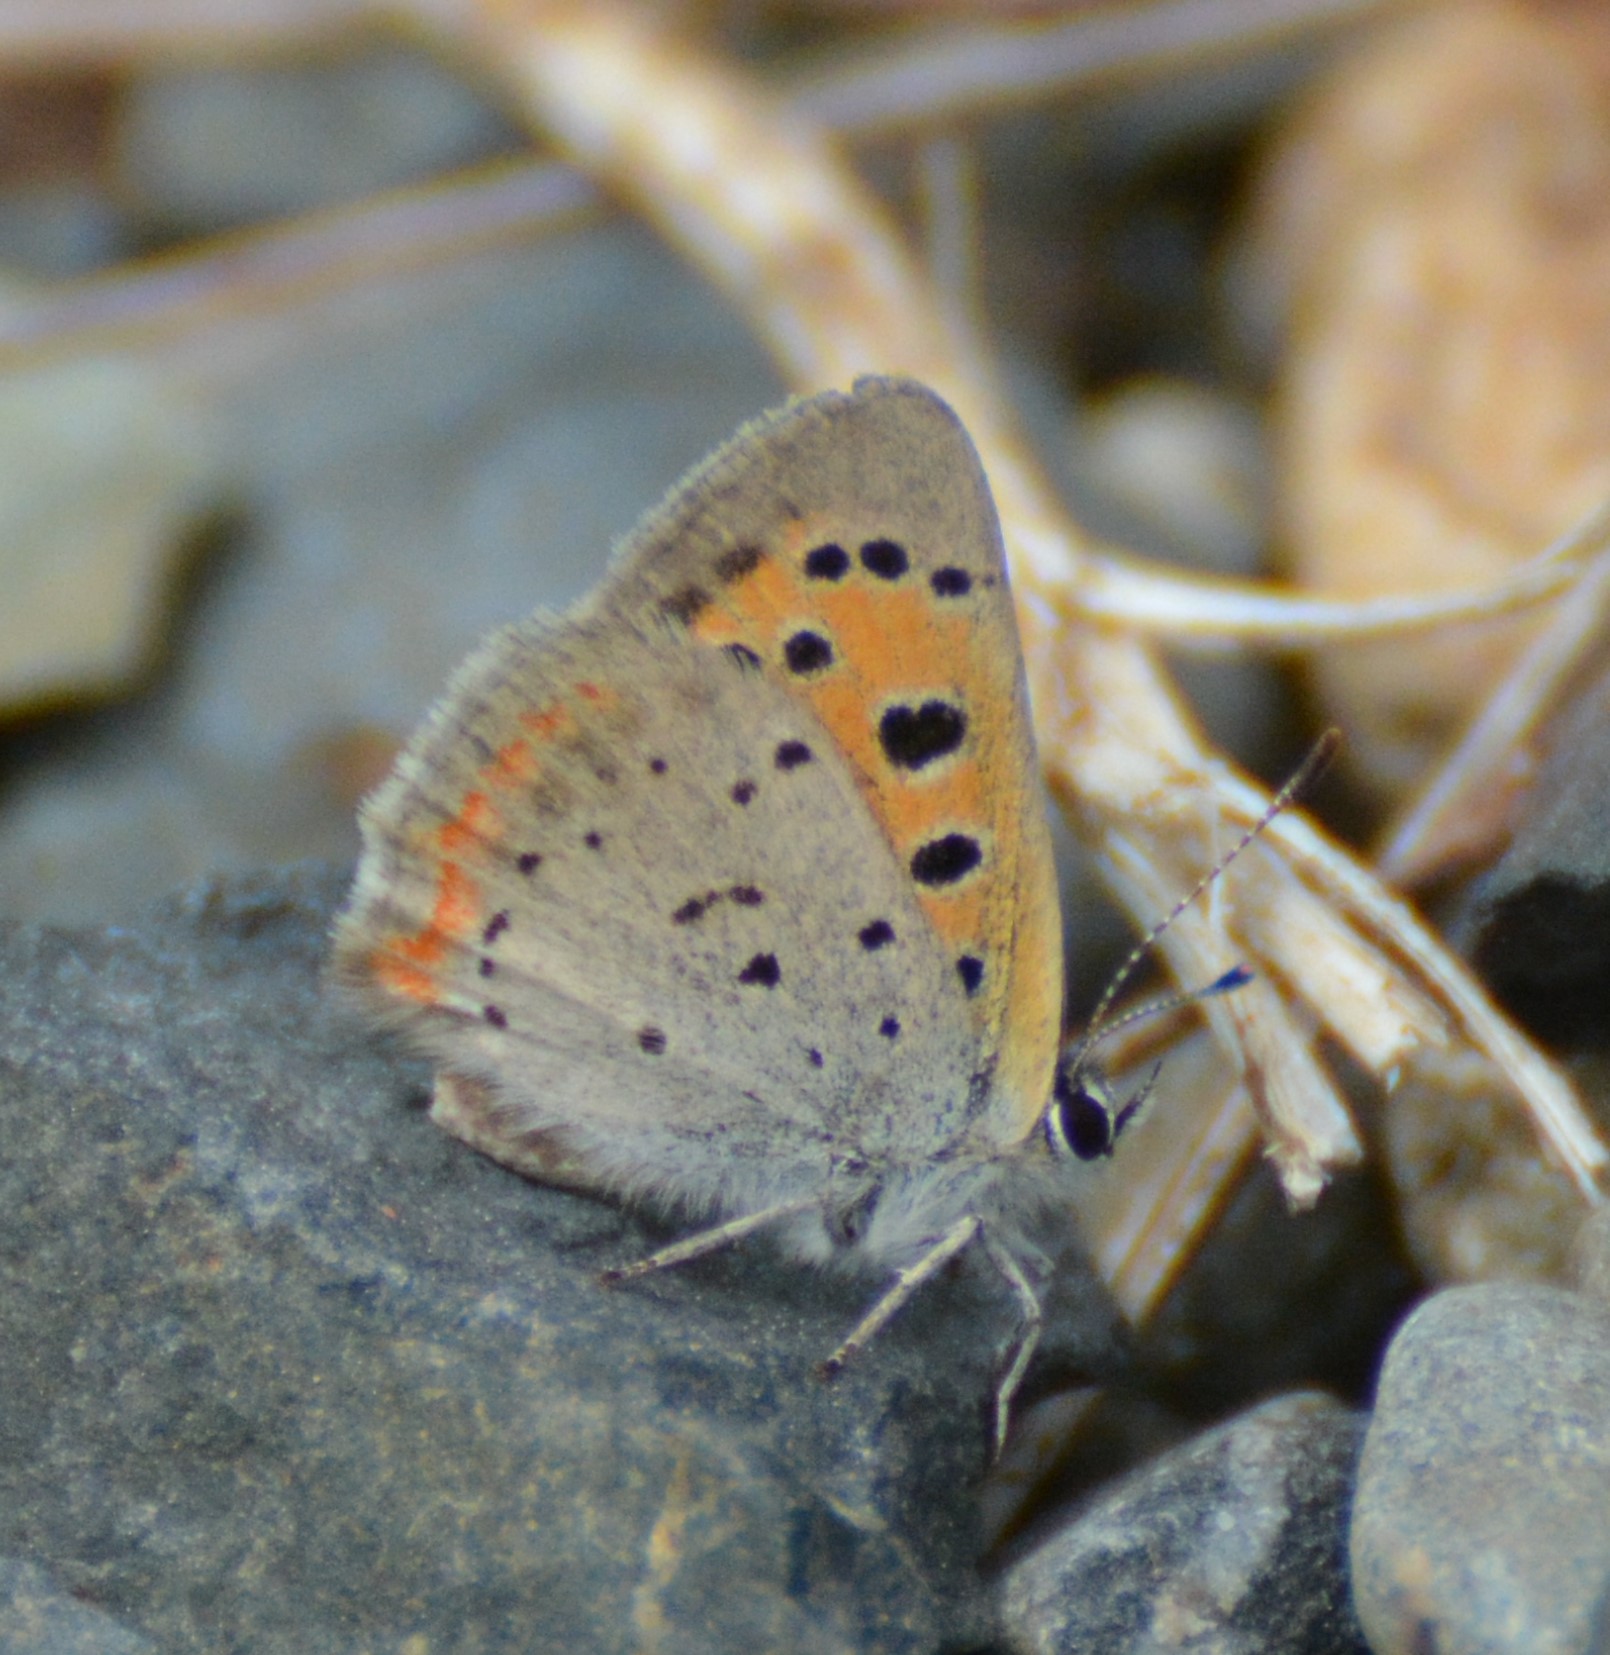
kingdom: Animalia
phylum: Arthropoda
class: Insecta
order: Lepidoptera
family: Lycaenidae
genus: Lycaena
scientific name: Lycaena hypophlaeas
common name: American copper
